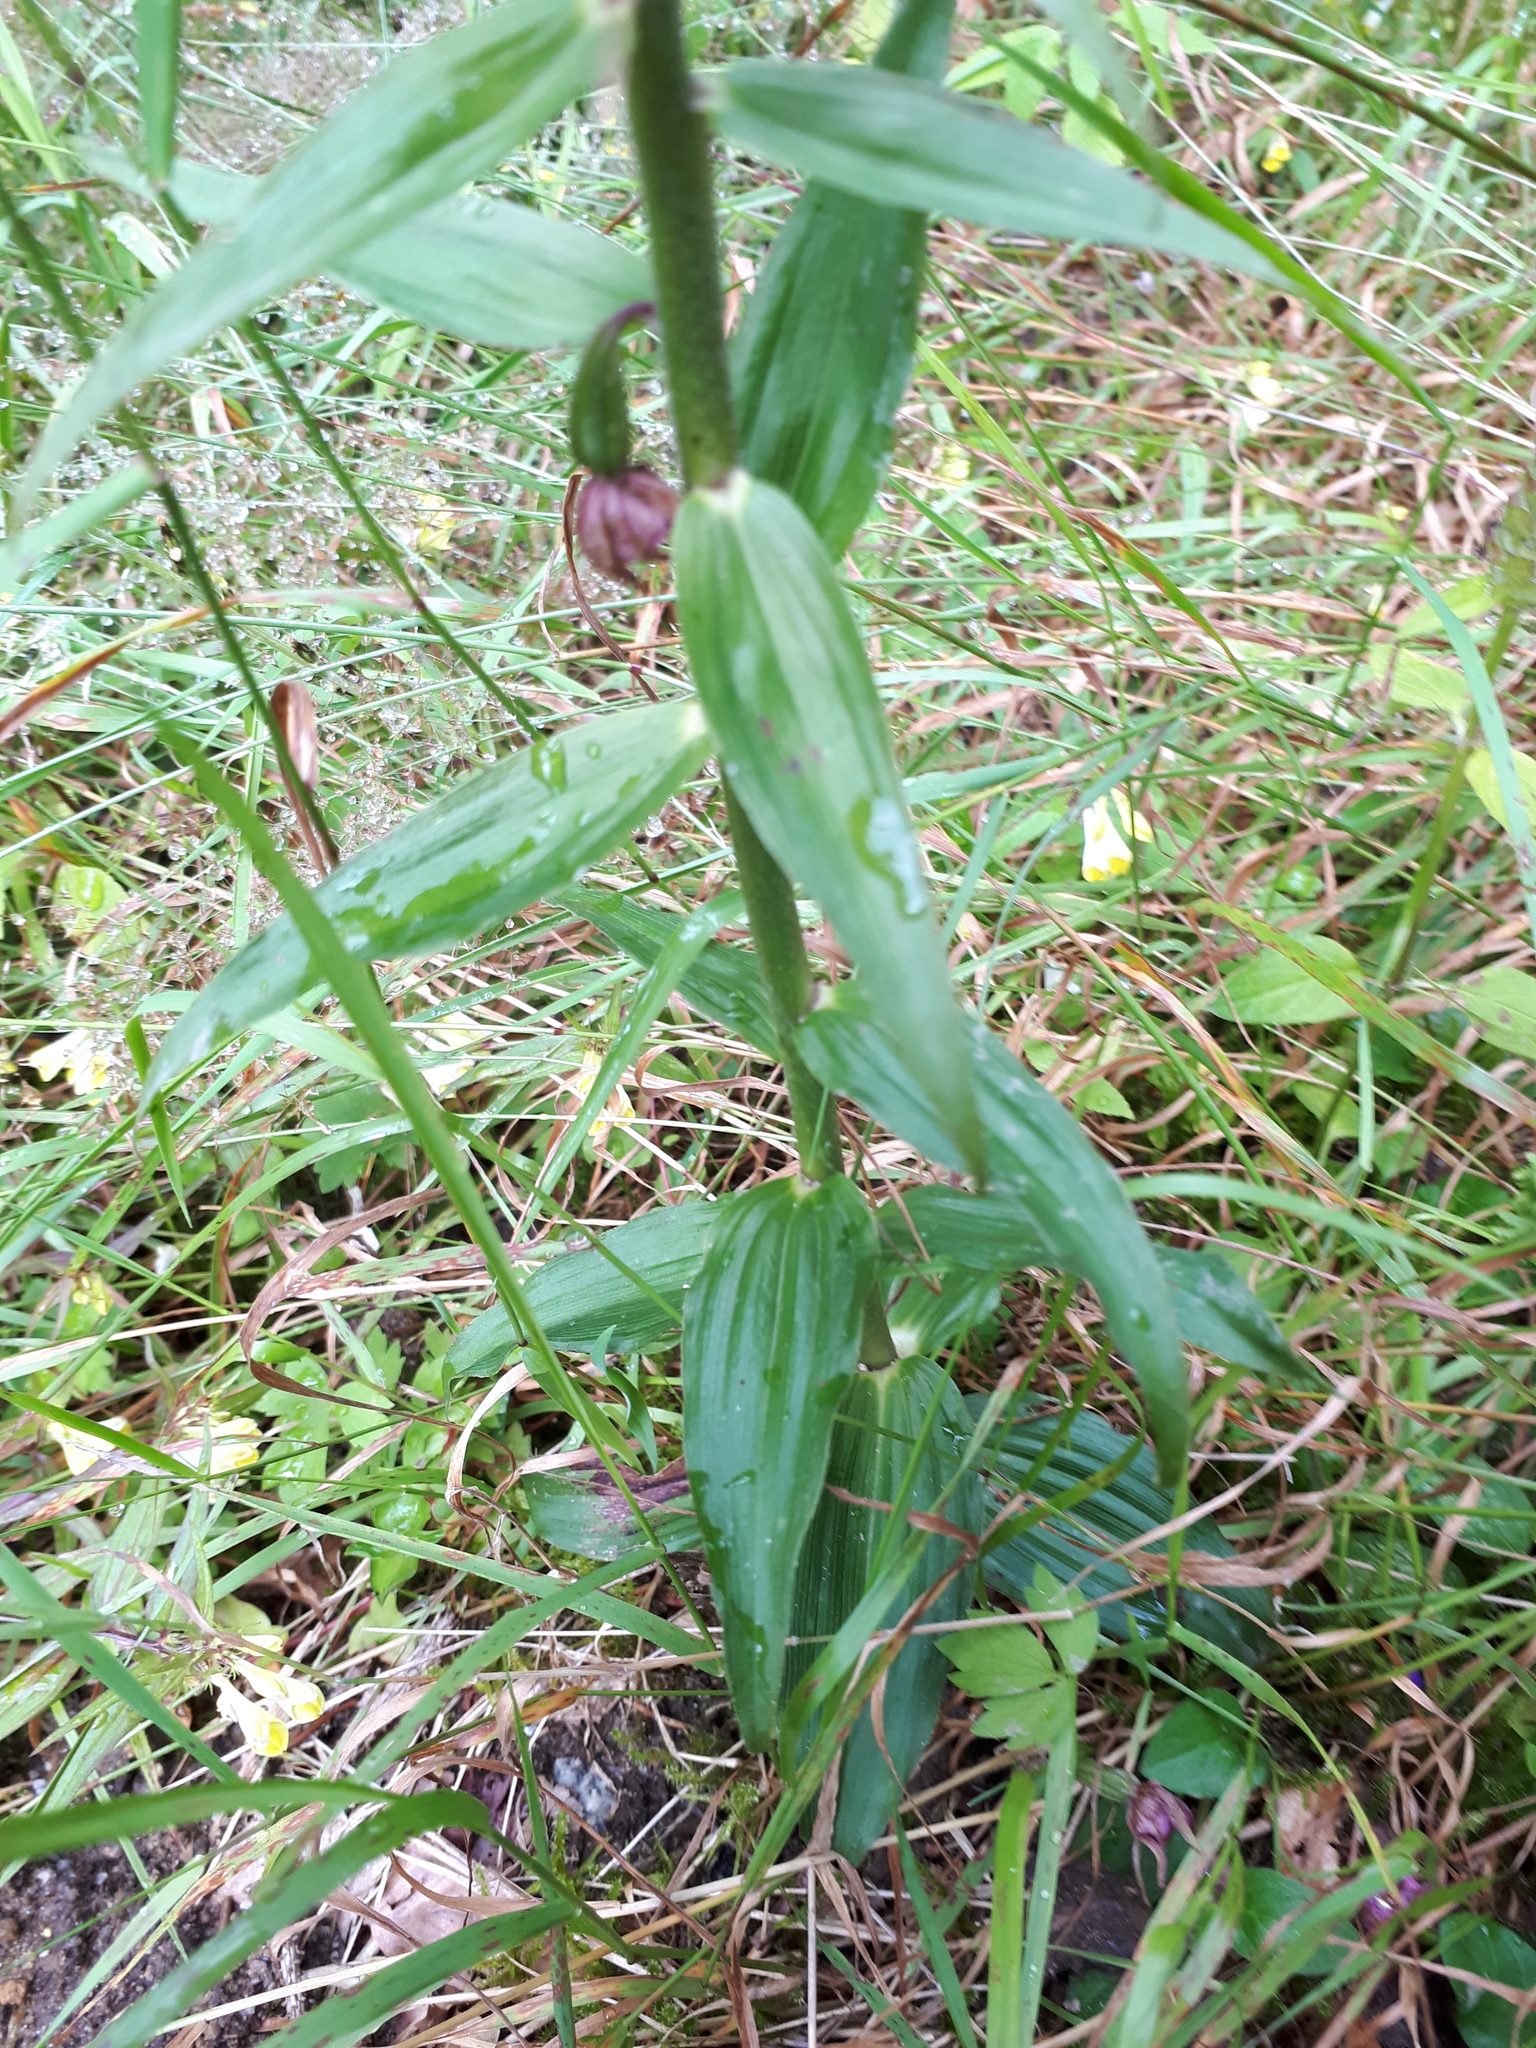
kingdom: Plantae
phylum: Tracheophyta
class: Liliopsida
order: Asparagales
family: Orchidaceae
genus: Epipactis
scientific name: Epipactis helleborine
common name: Broad-leaved helleborine
